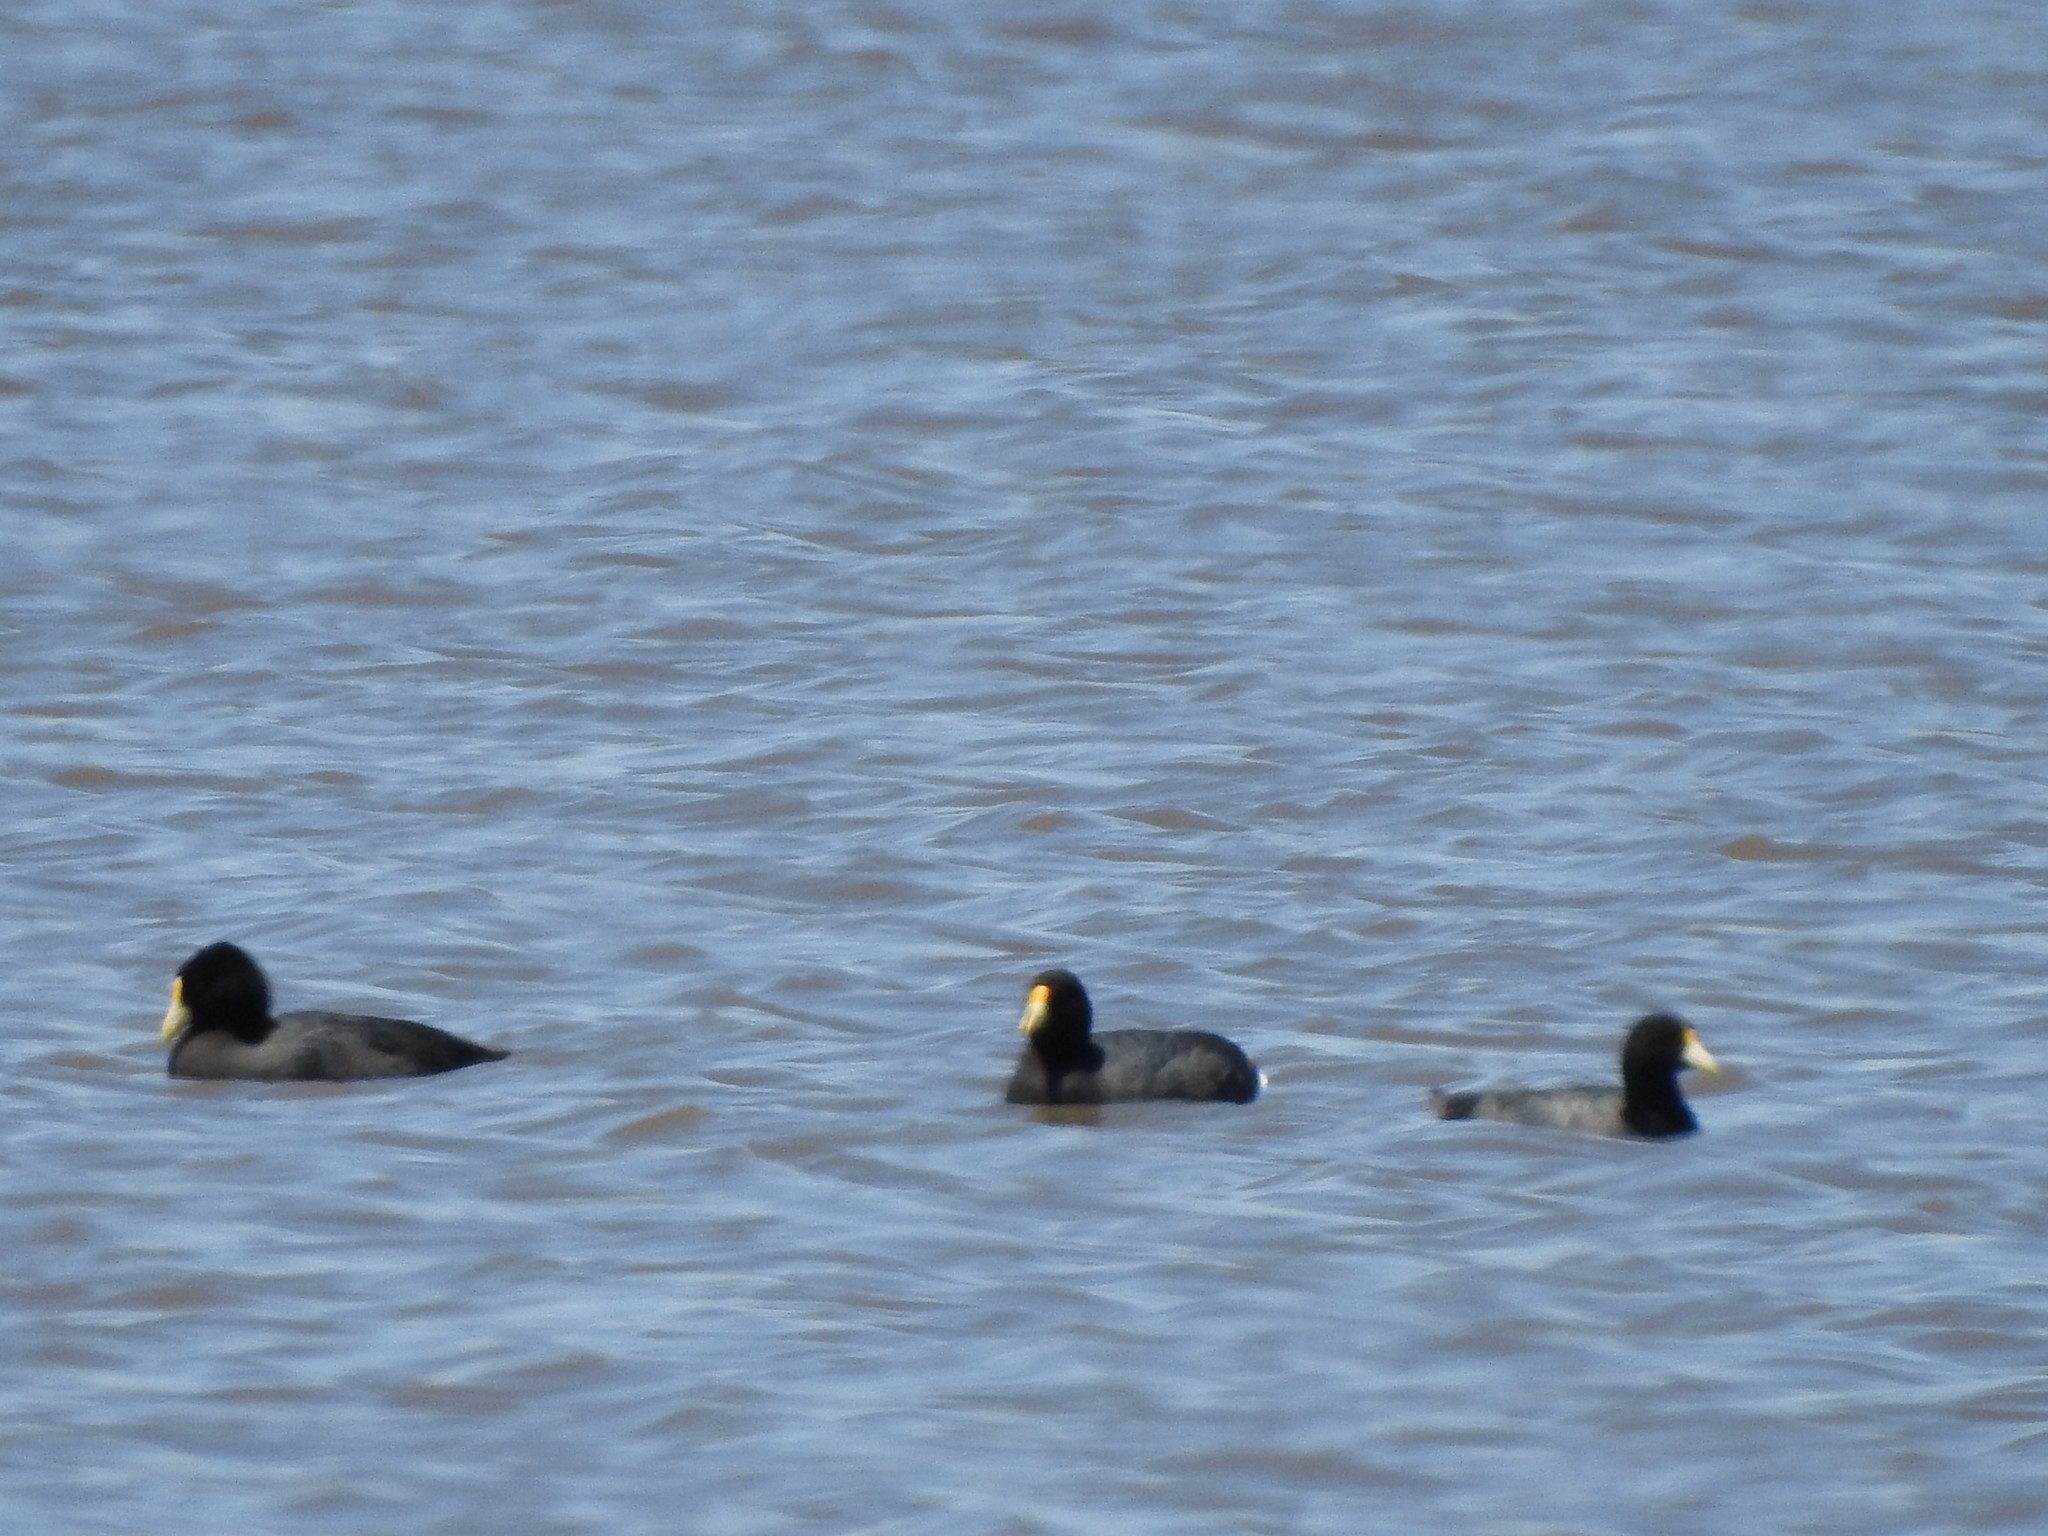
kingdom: Animalia
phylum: Chordata
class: Aves
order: Gruiformes
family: Rallidae
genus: Fulica
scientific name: Fulica leucoptera
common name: White-winged coot
